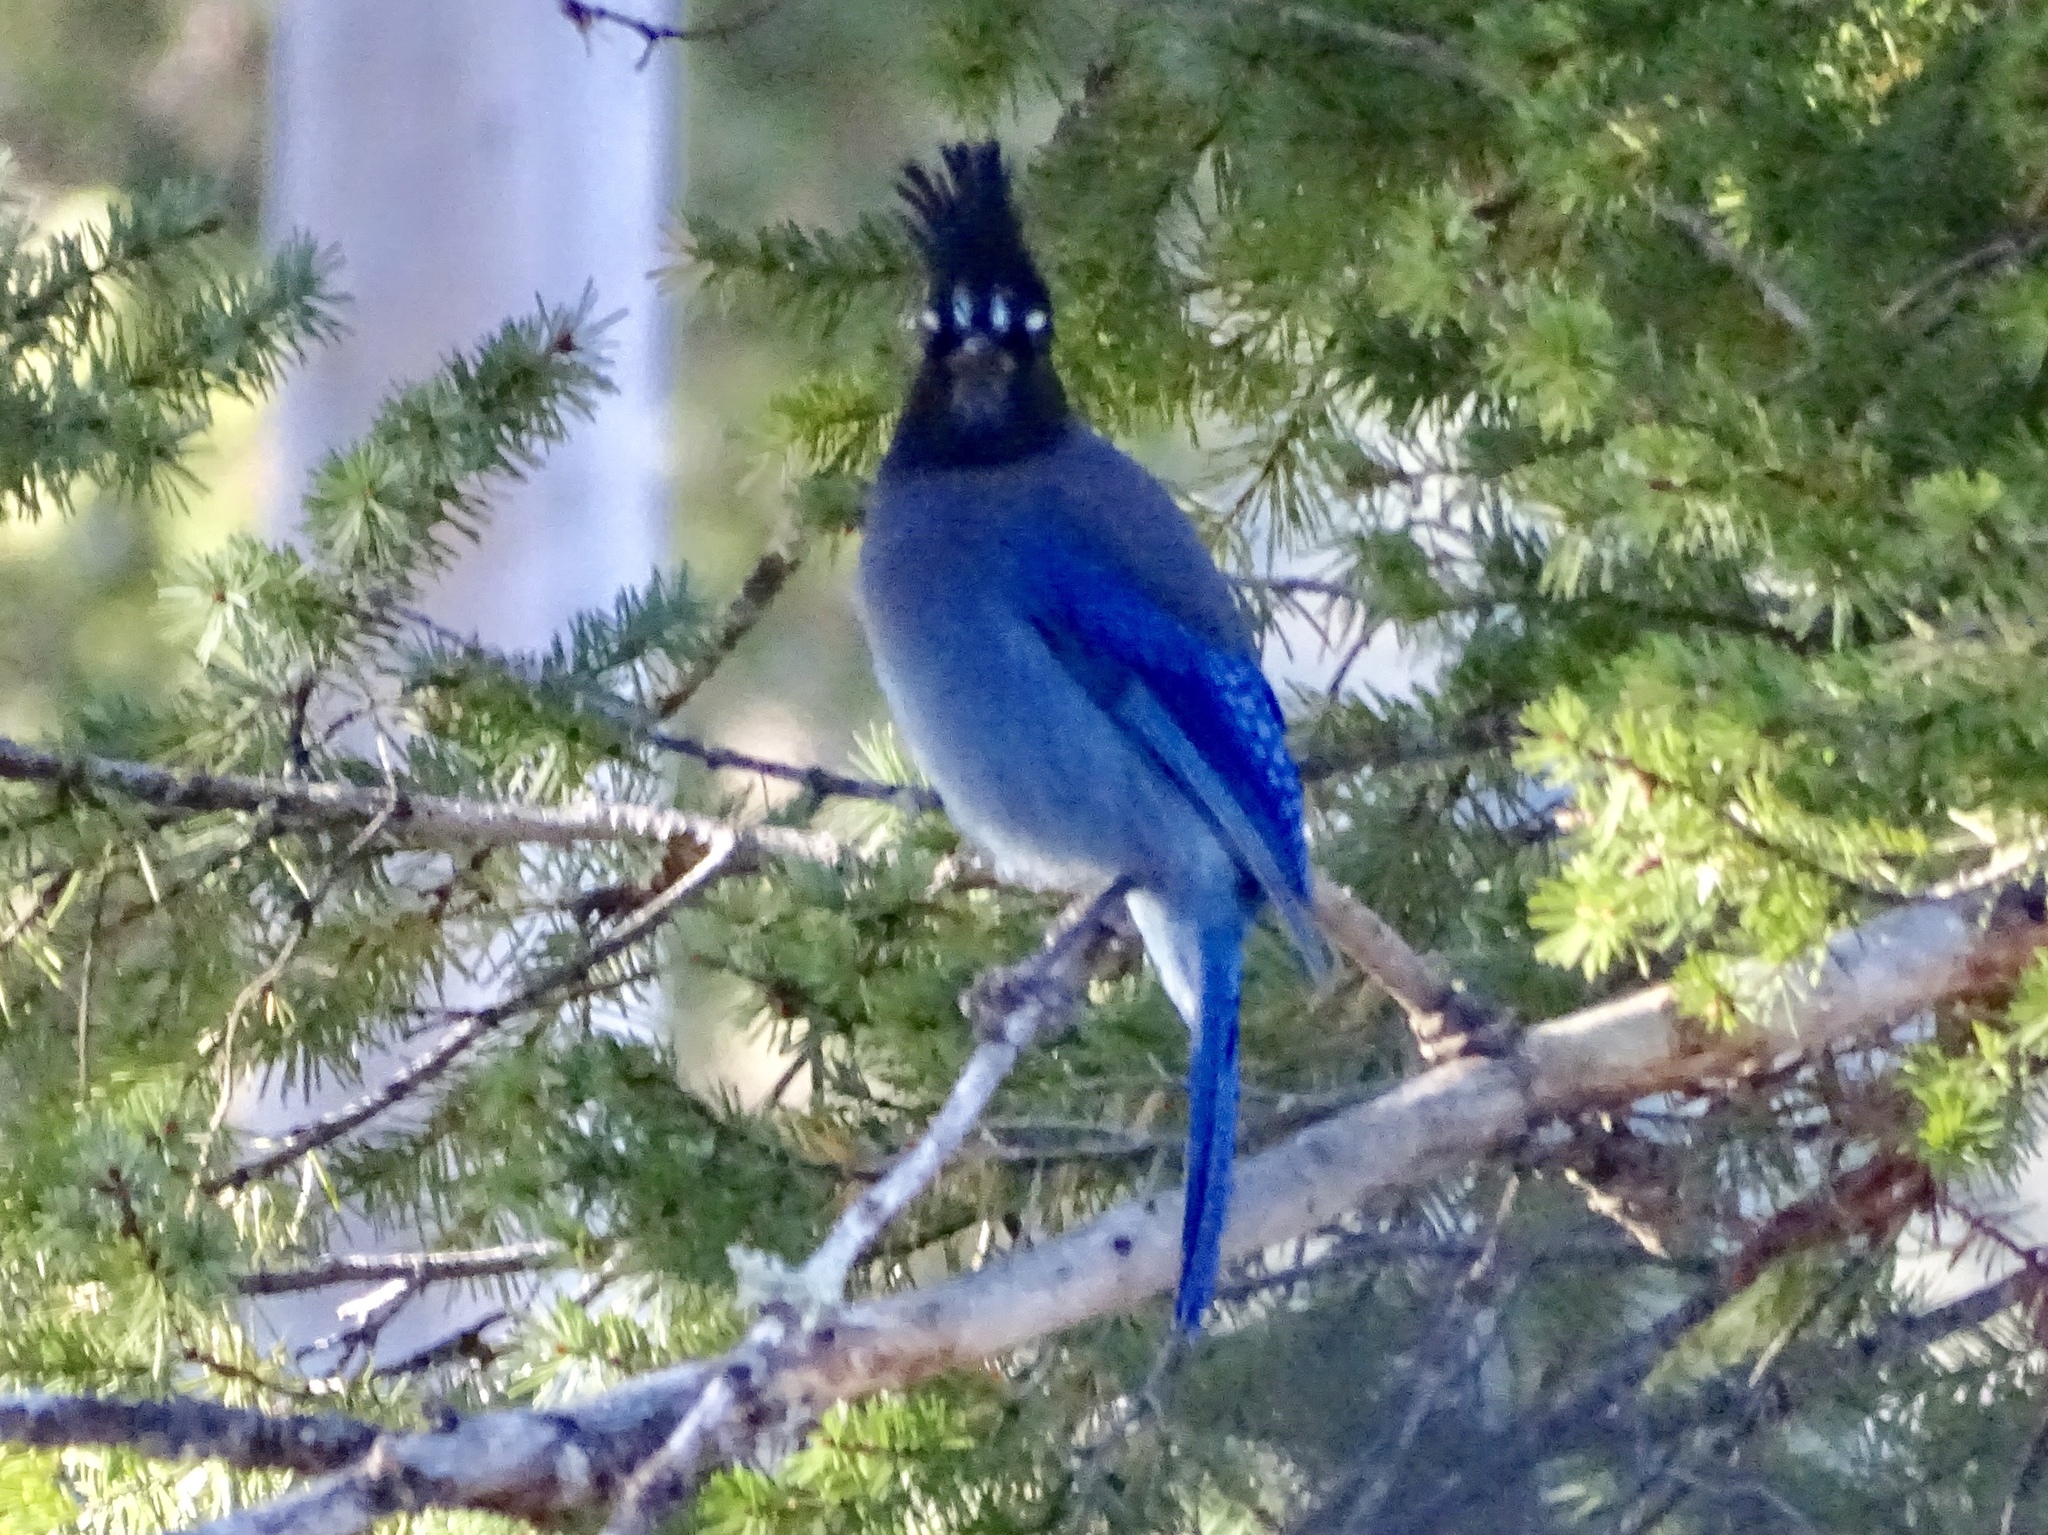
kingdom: Animalia
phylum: Chordata
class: Aves
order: Passeriformes
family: Corvidae
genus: Cyanocitta
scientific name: Cyanocitta stelleri
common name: Steller's jay
